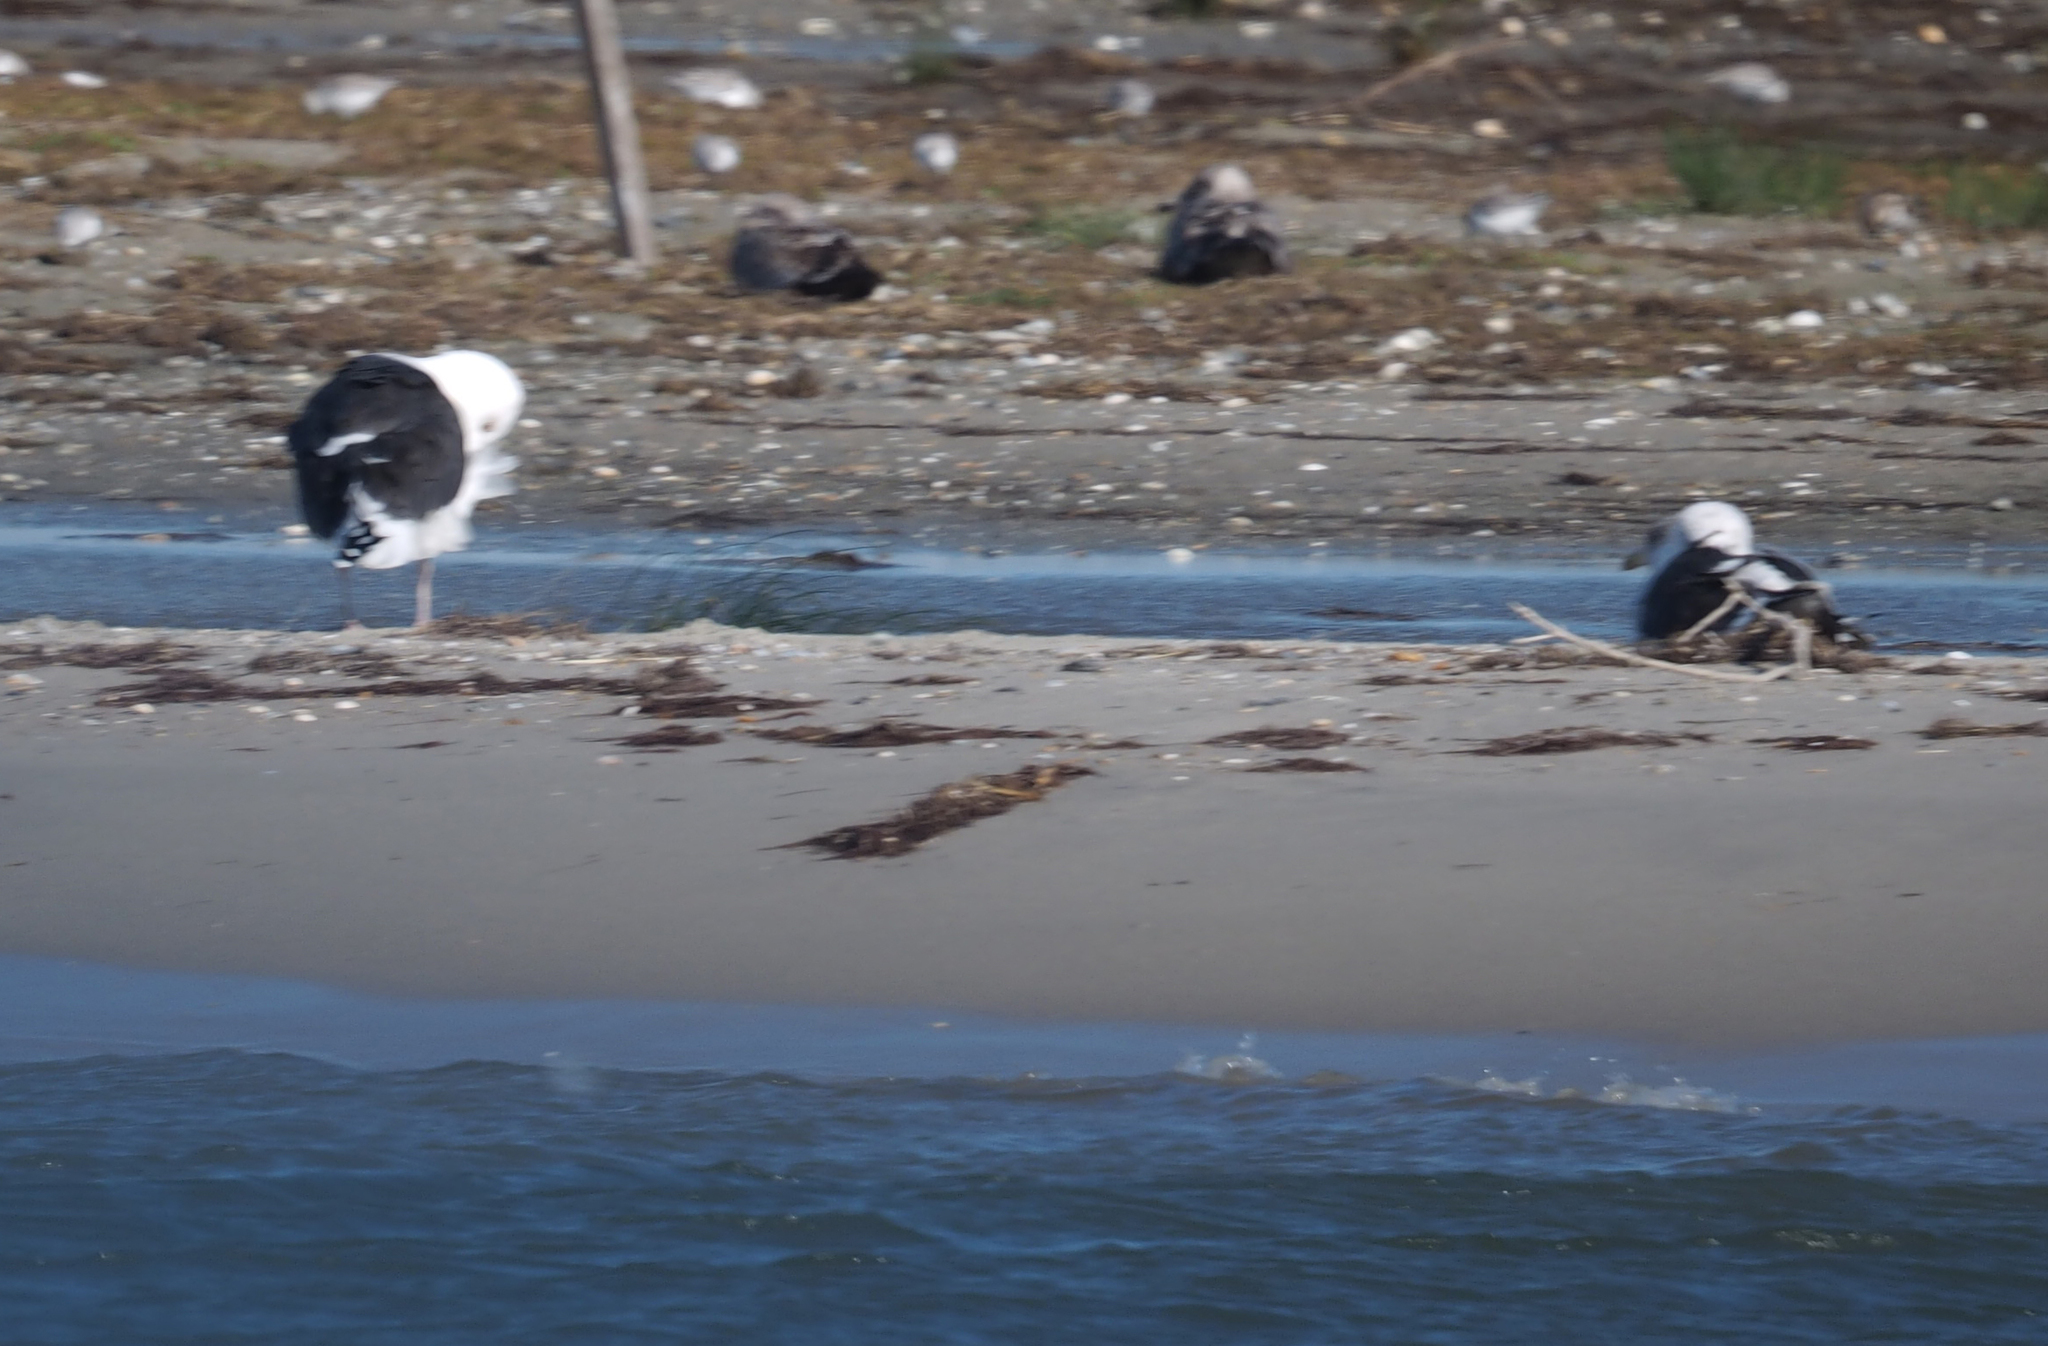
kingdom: Animalia
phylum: Chordata
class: Aves
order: Charadriiformes
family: Laridae
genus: Larus
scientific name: Larus marinus
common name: Great black-backed gull
